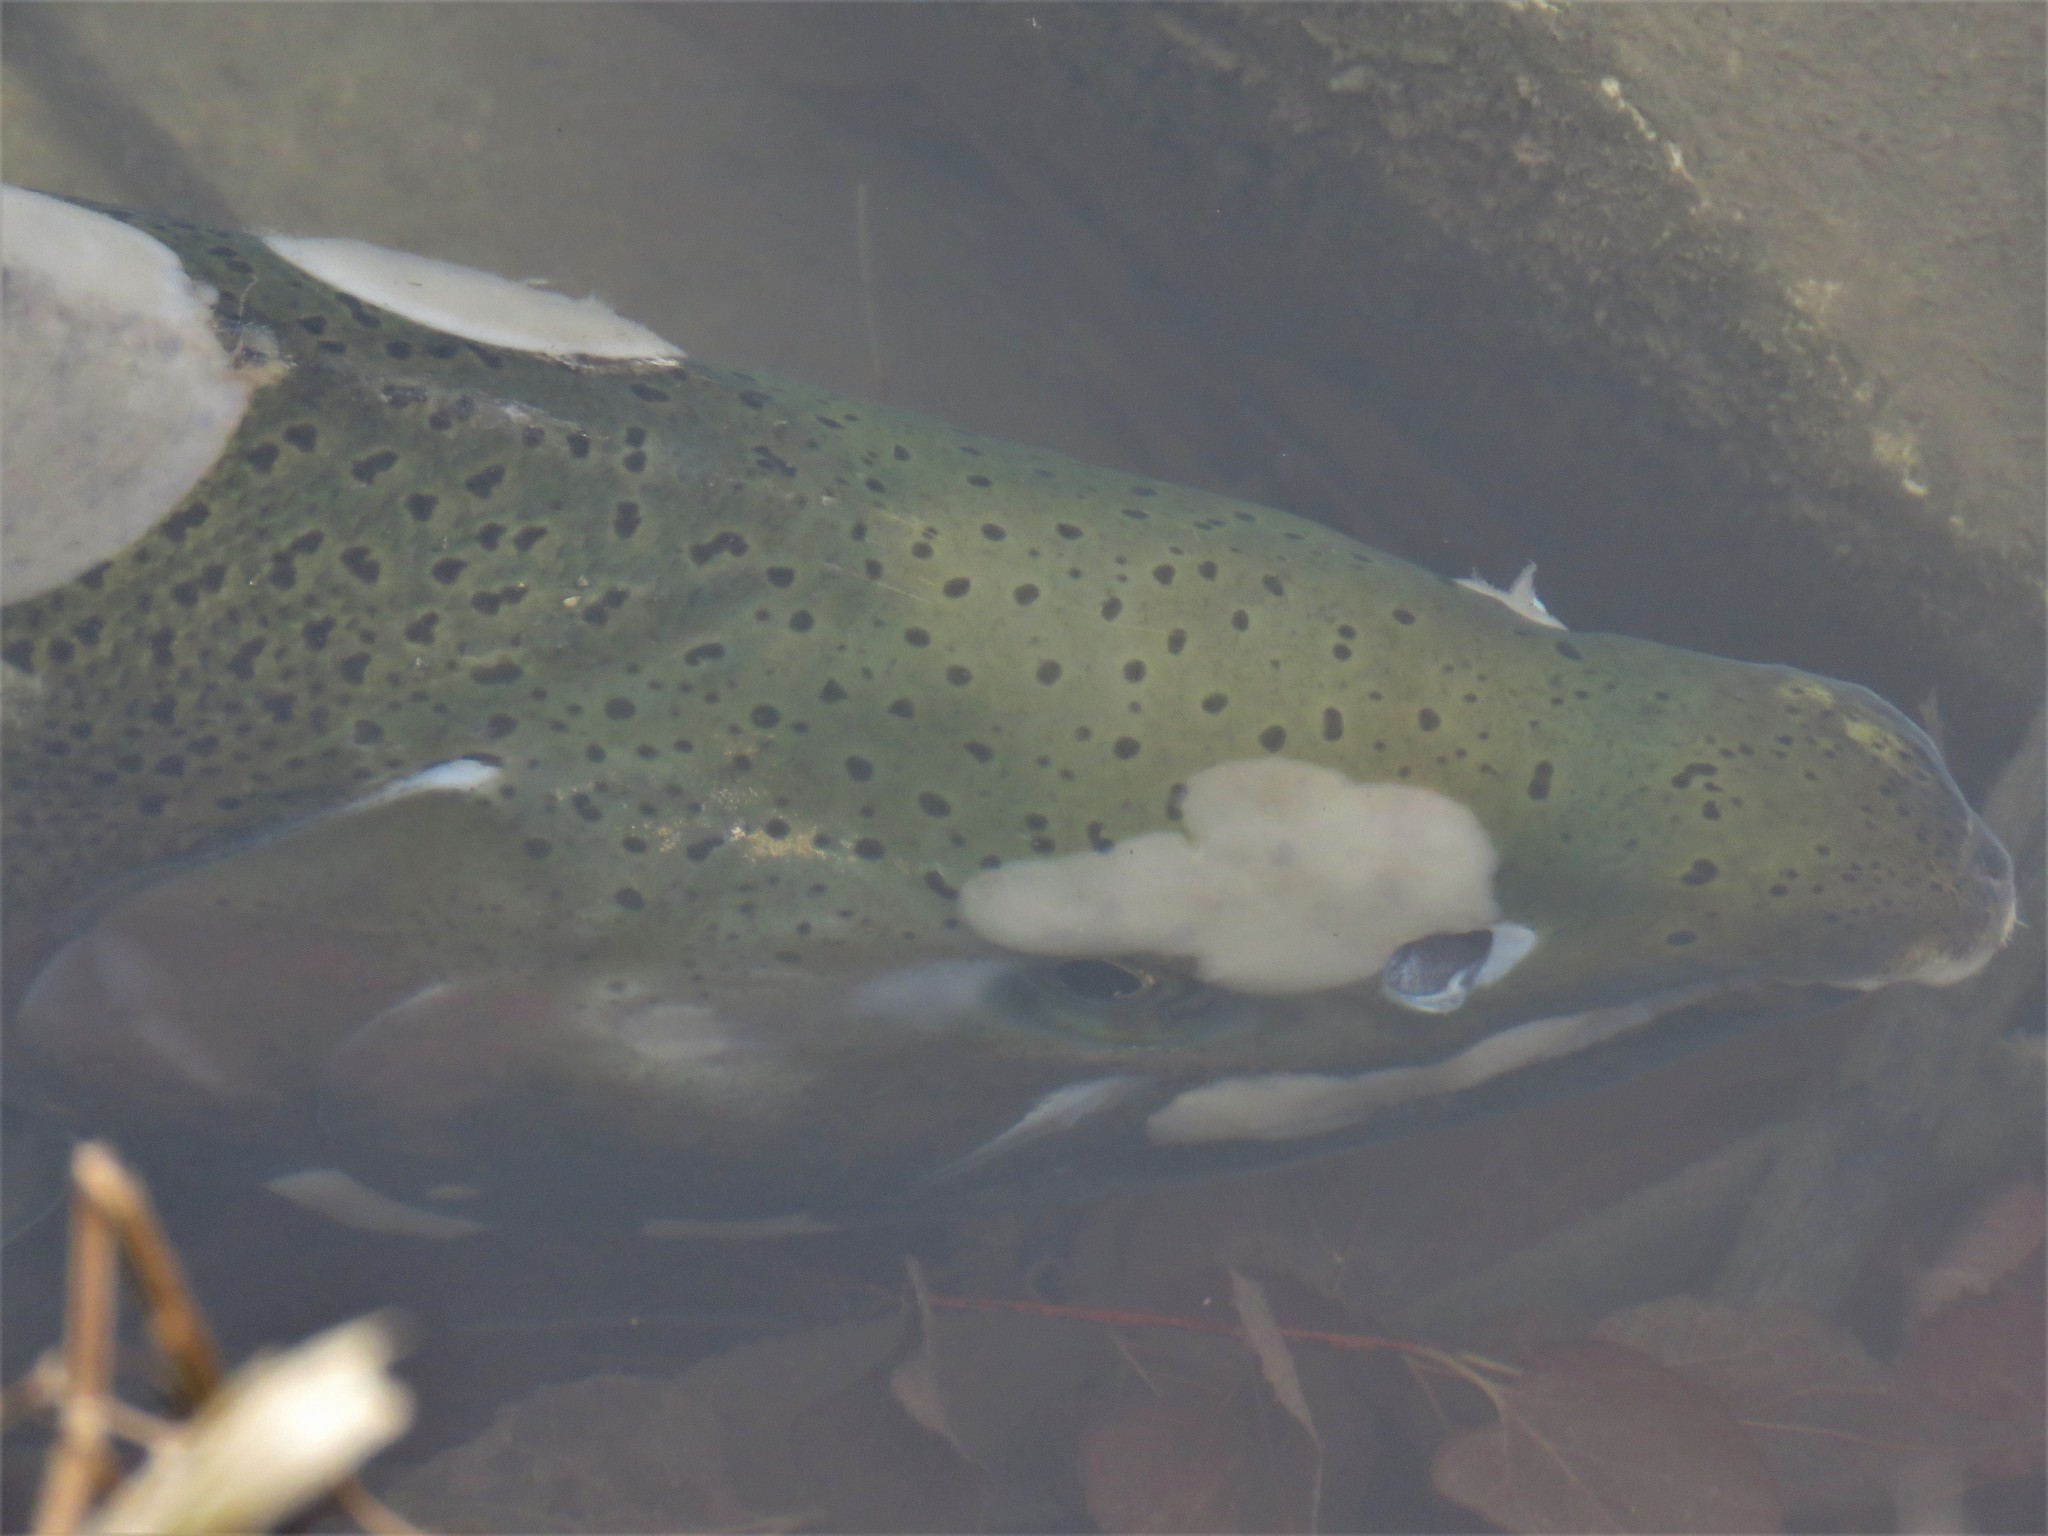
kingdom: Animalia
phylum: Chordata
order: Salmoniformes
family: Salmonidae
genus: Oncorhynchus
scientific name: Oncorhynchus kisutch
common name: Coho salmon
